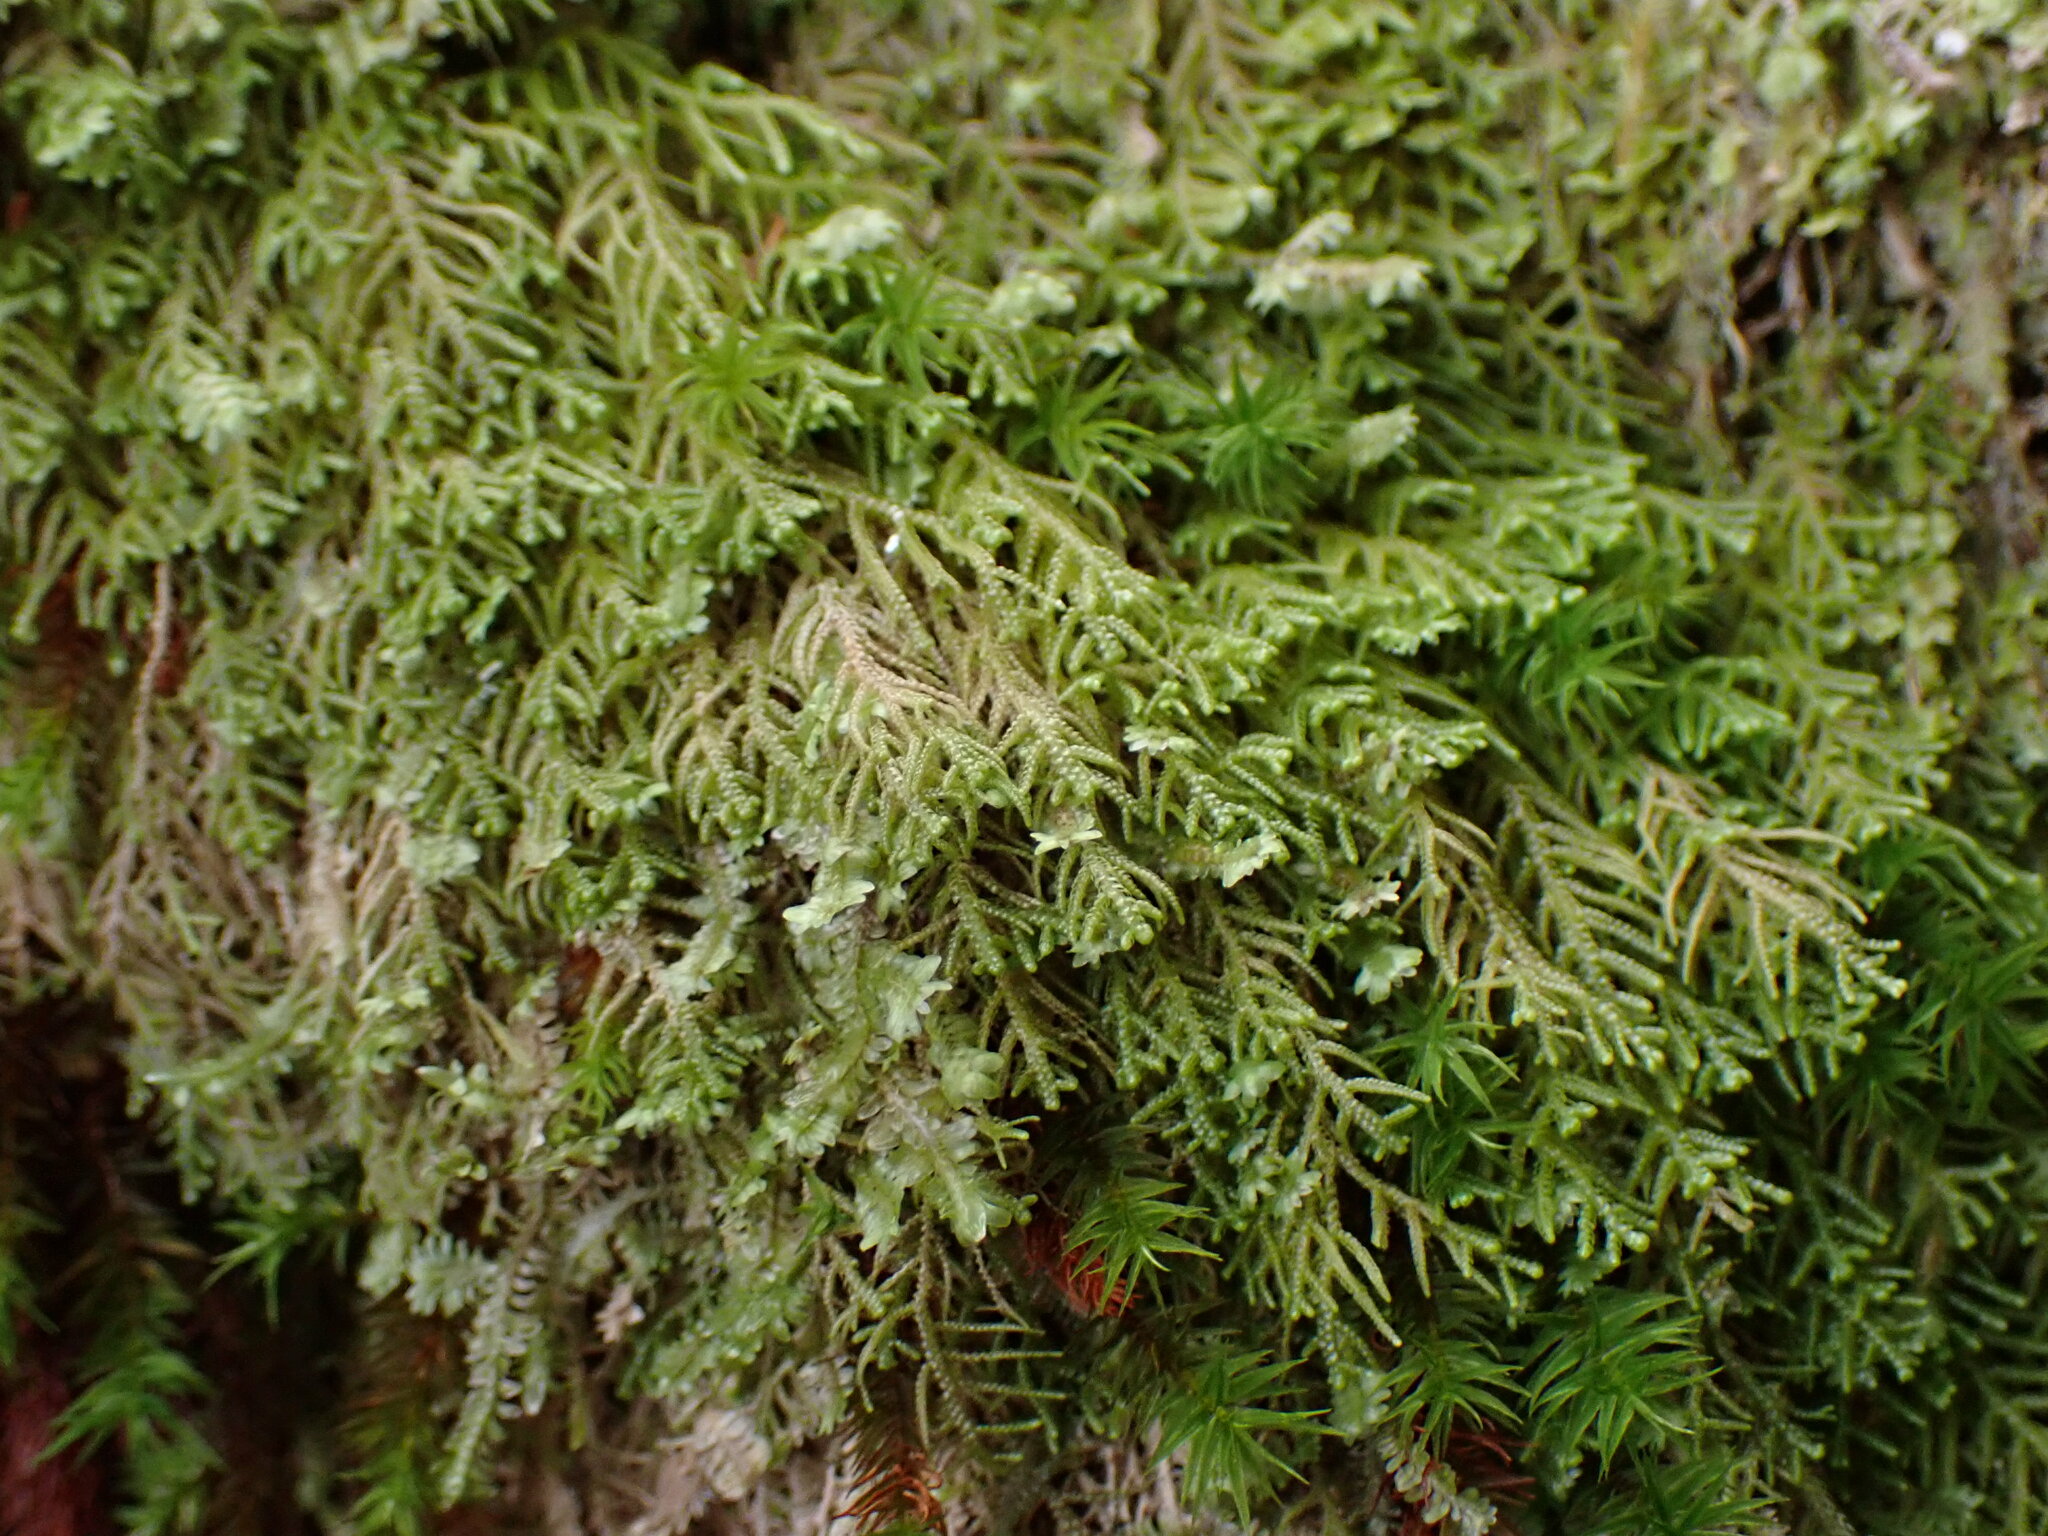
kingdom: Plantae
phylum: Marchantiophyta
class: Jungermanniopsida
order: Jungermanniales
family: Lepidoziaceae
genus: Lepidozia
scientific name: Lepidozia filamentosa
